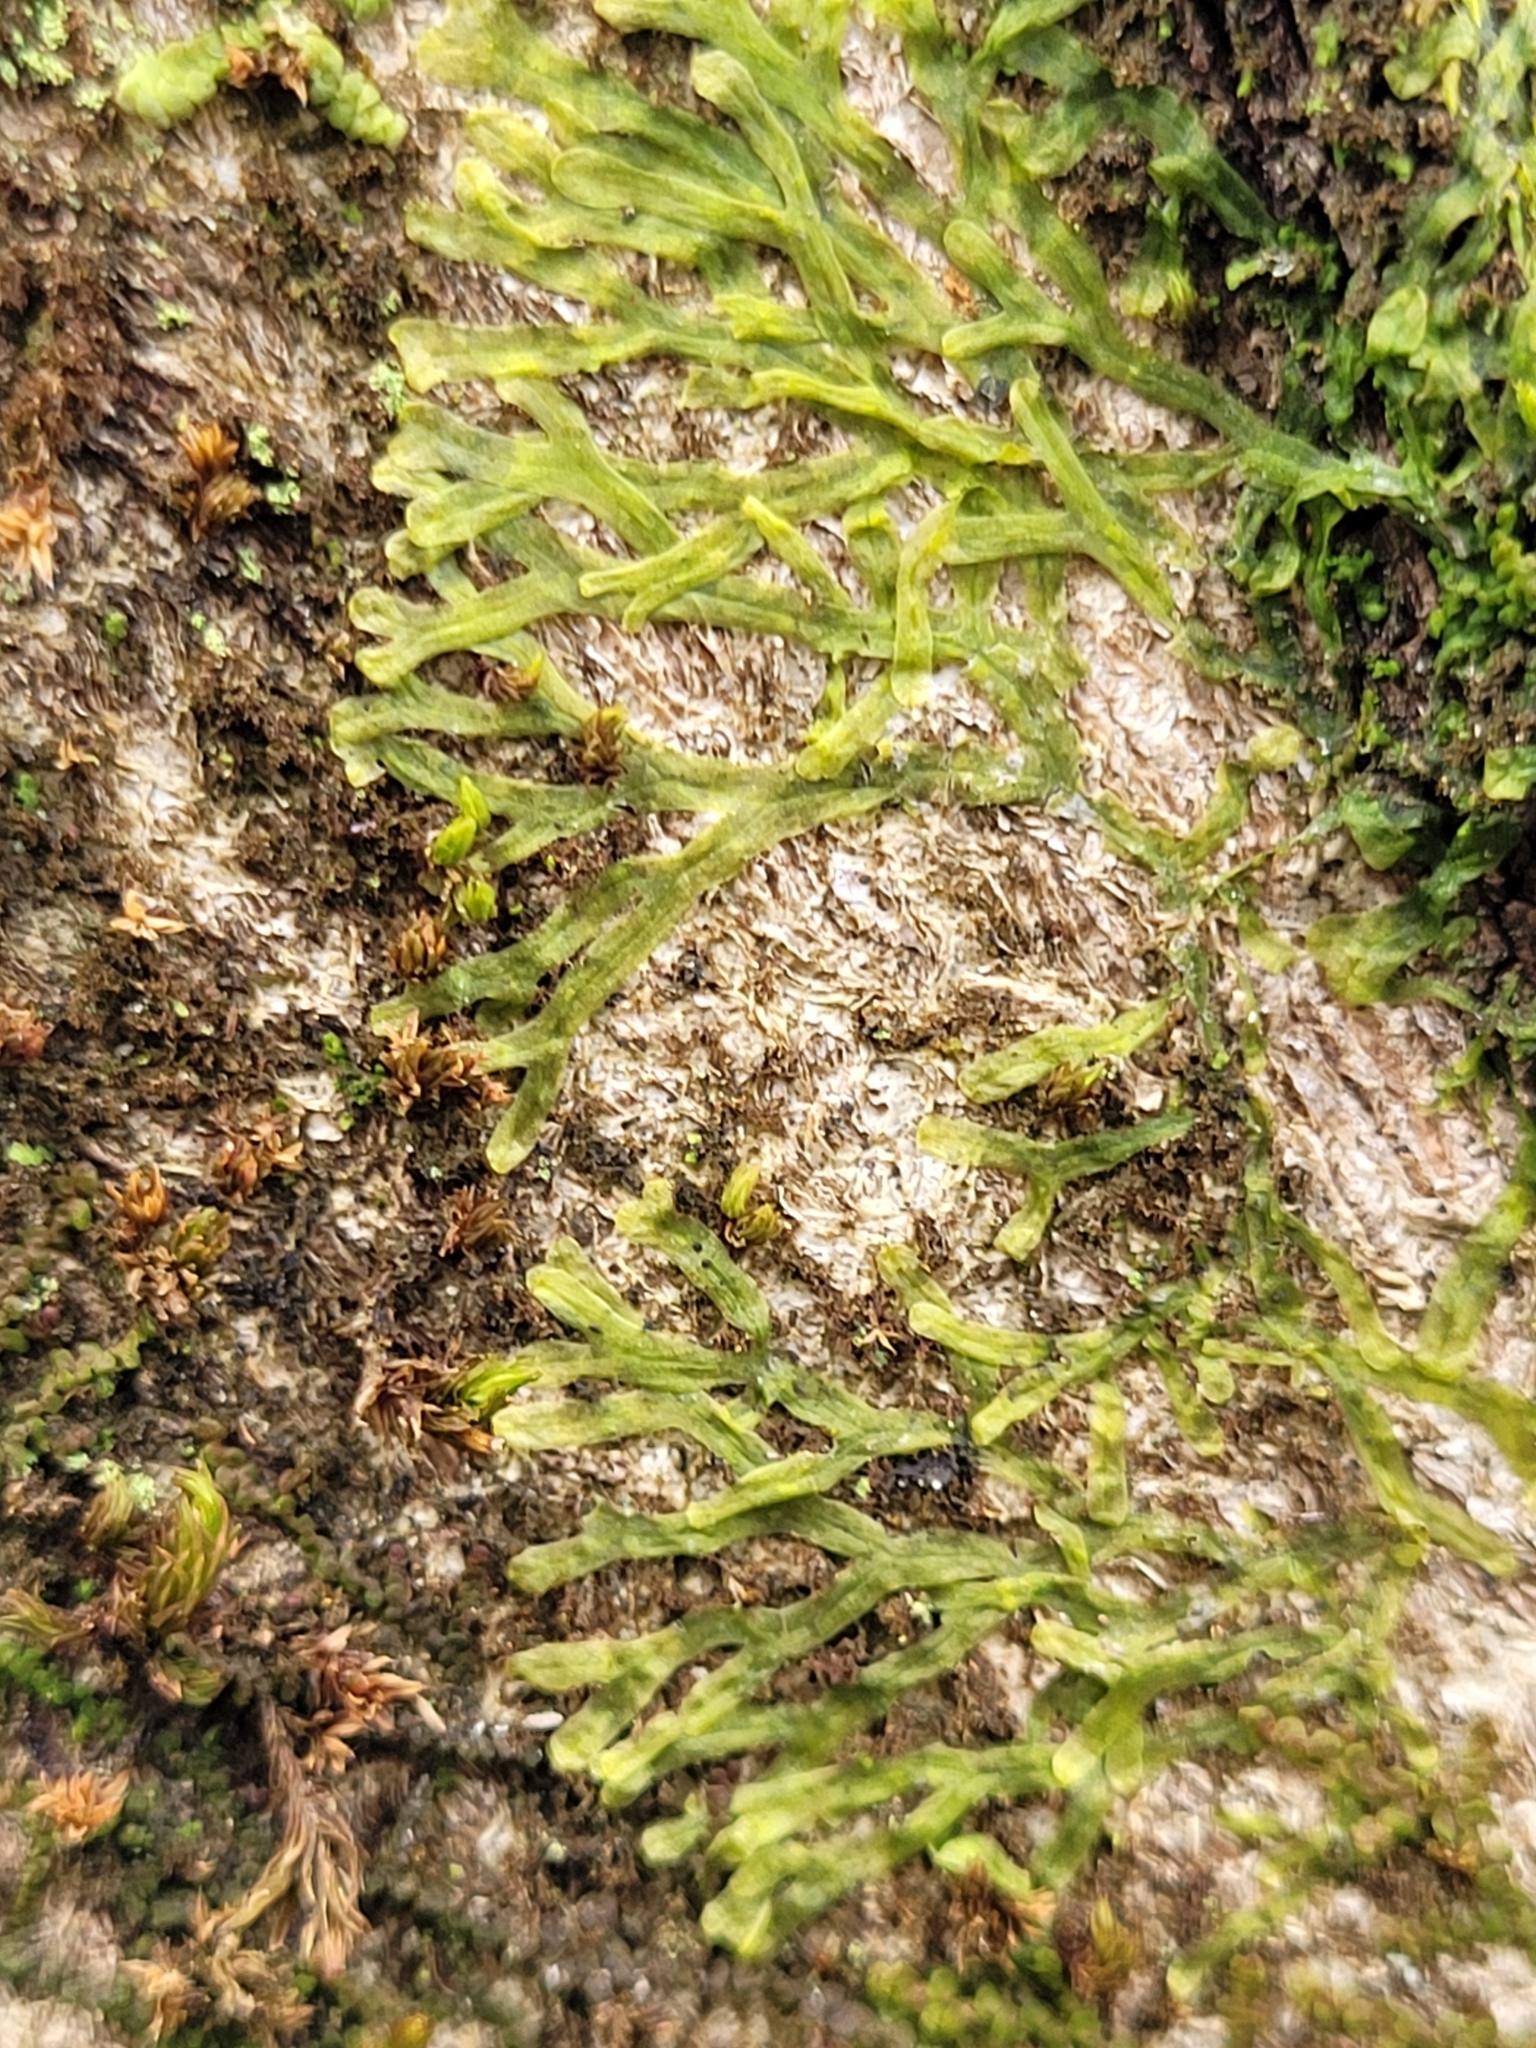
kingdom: Plantae
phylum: Marchantiophyta
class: Jungermanniopsida
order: Metzgeriales
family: Metzgeriaceae
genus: Metzgeria
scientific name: Metzgeria furcata
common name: Forked veilwort
